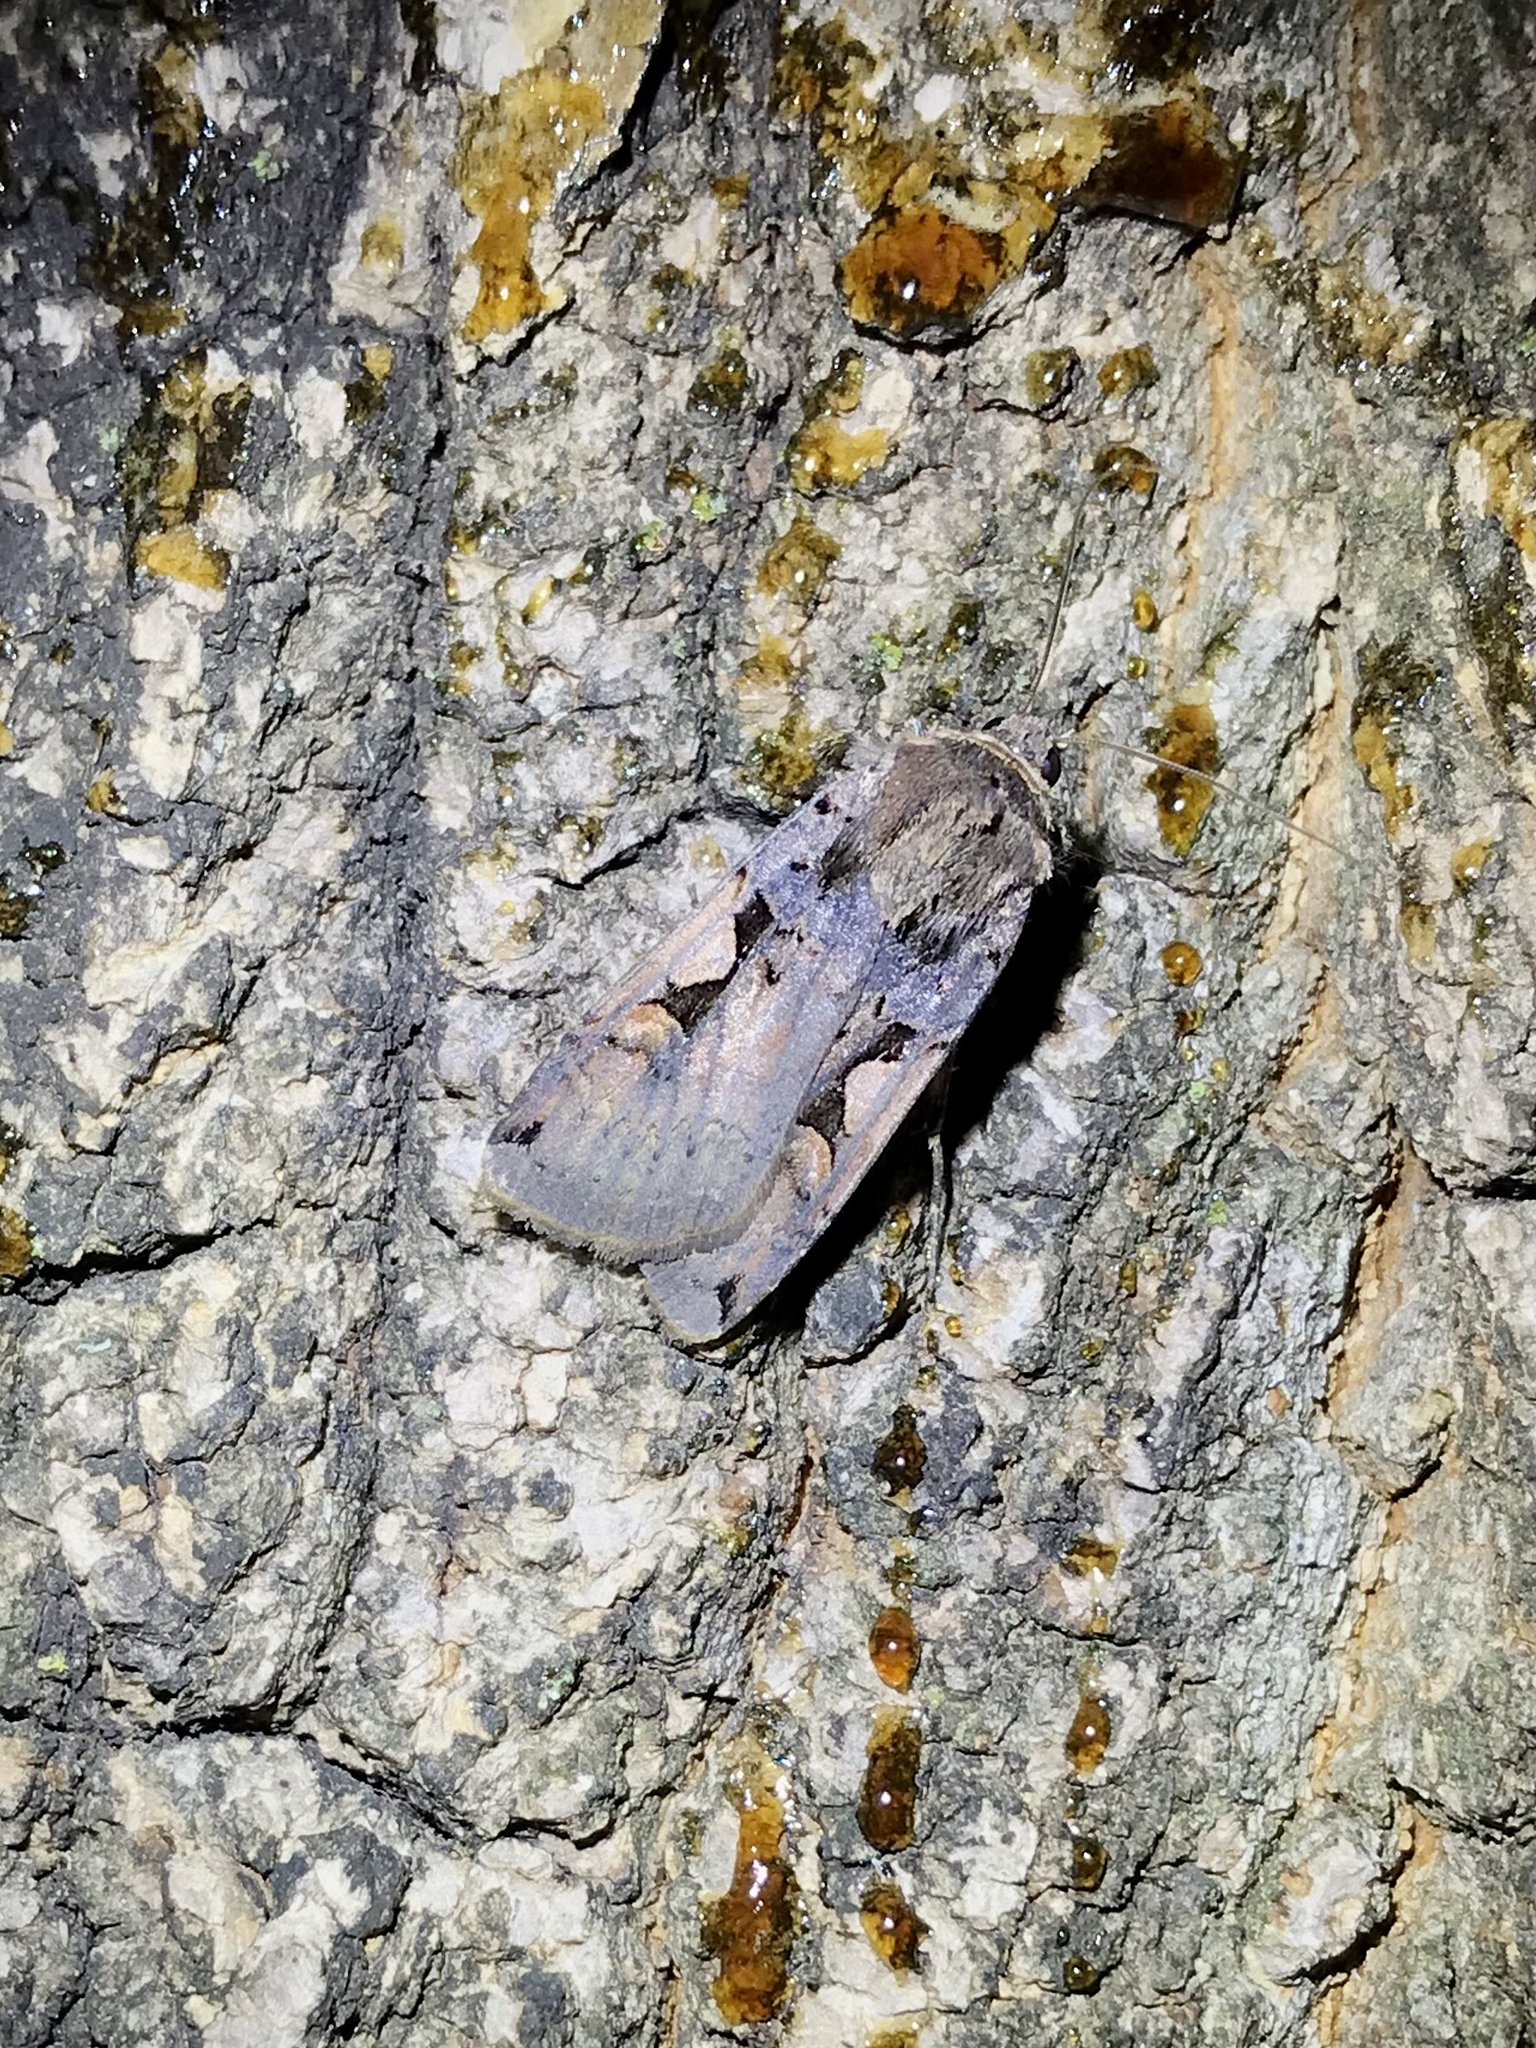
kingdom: Animalia
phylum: Arthropoda
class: Insecta
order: Lepidoptera
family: Noctuidae
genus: Xestia
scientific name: Xestia dolosa
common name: Cutworm moth
